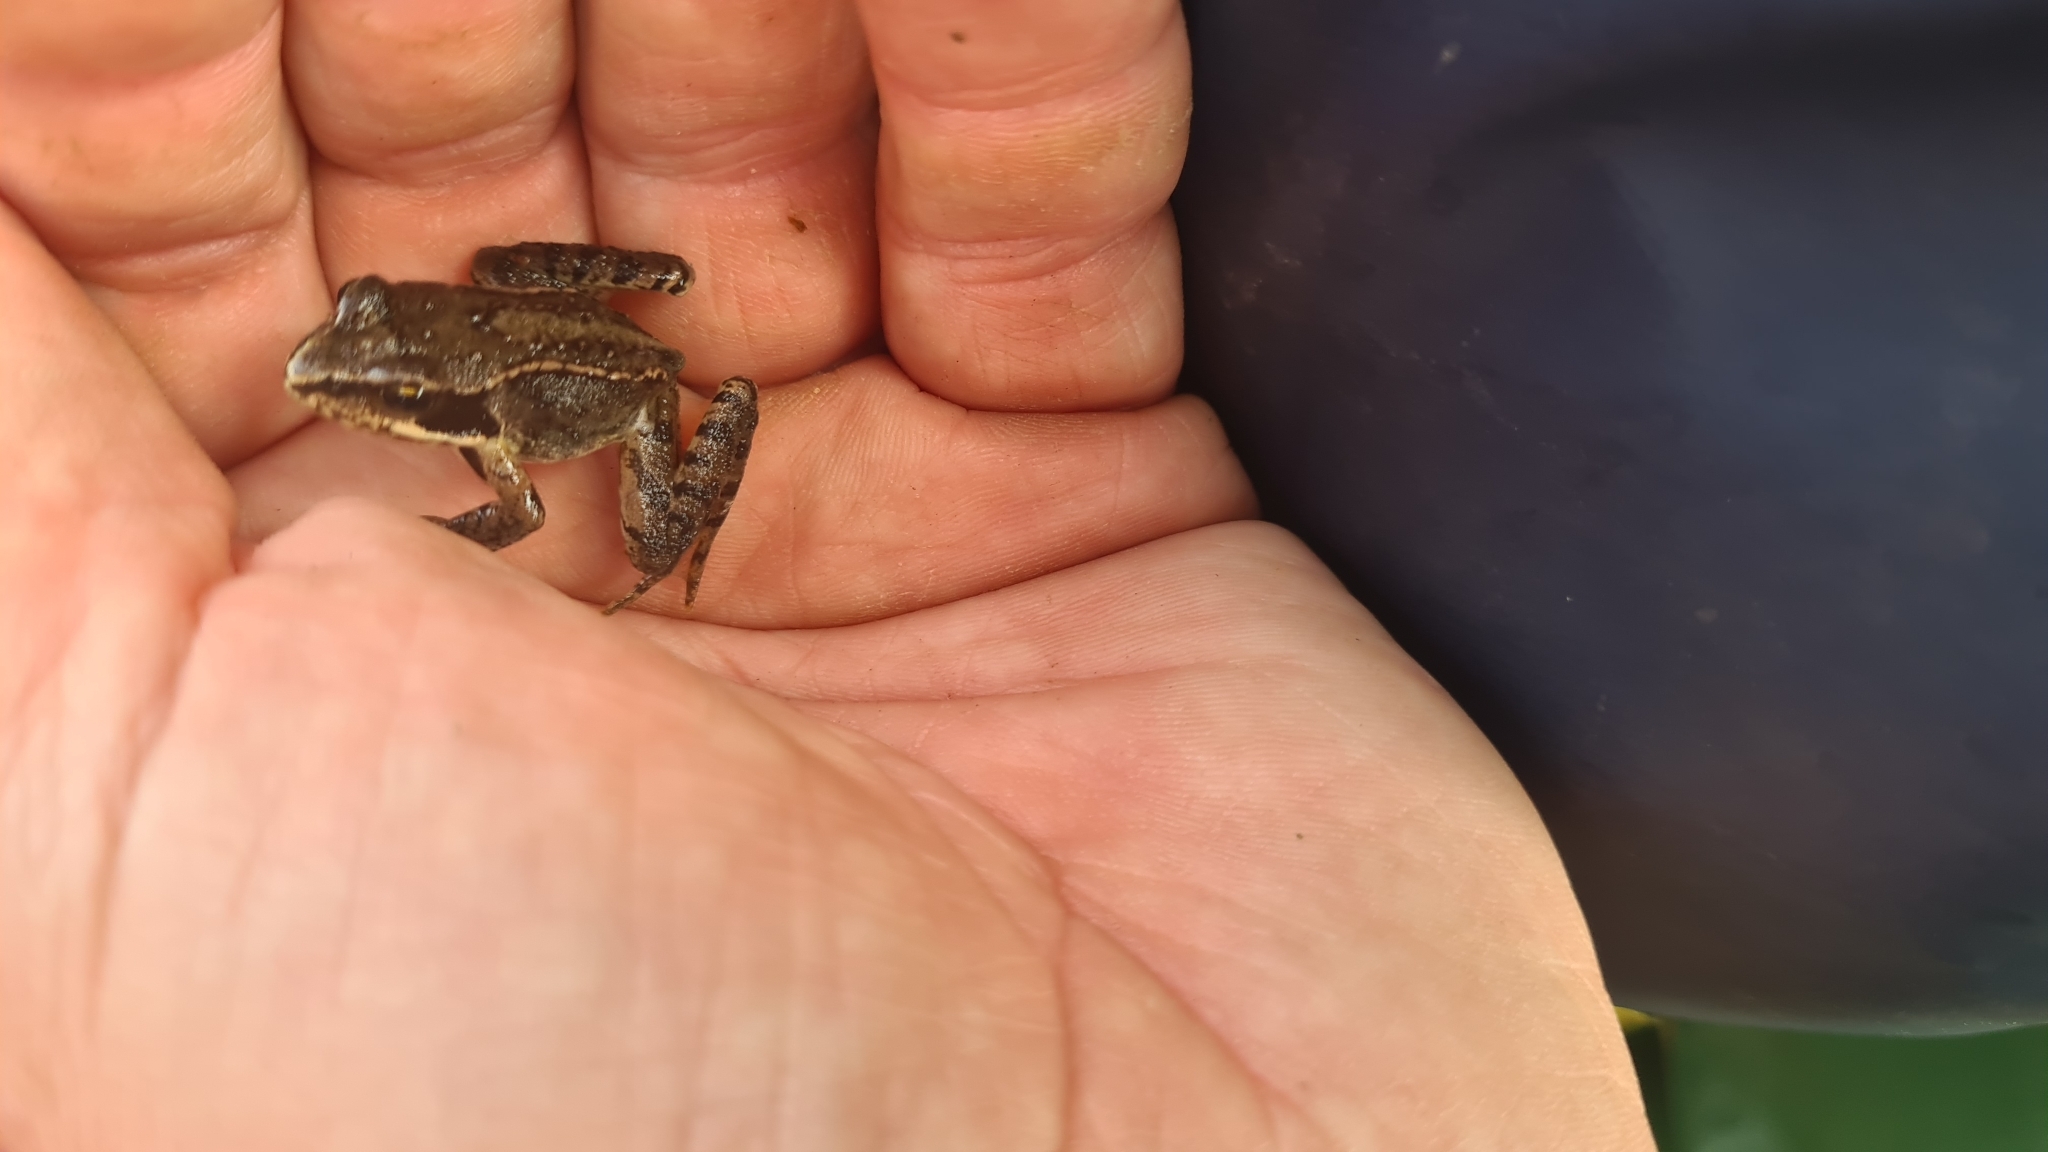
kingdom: Animalia
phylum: Chordata
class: Amphibia
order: Anura
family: Ranidae
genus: Rana
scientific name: Rana temporaria
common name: Common frog
